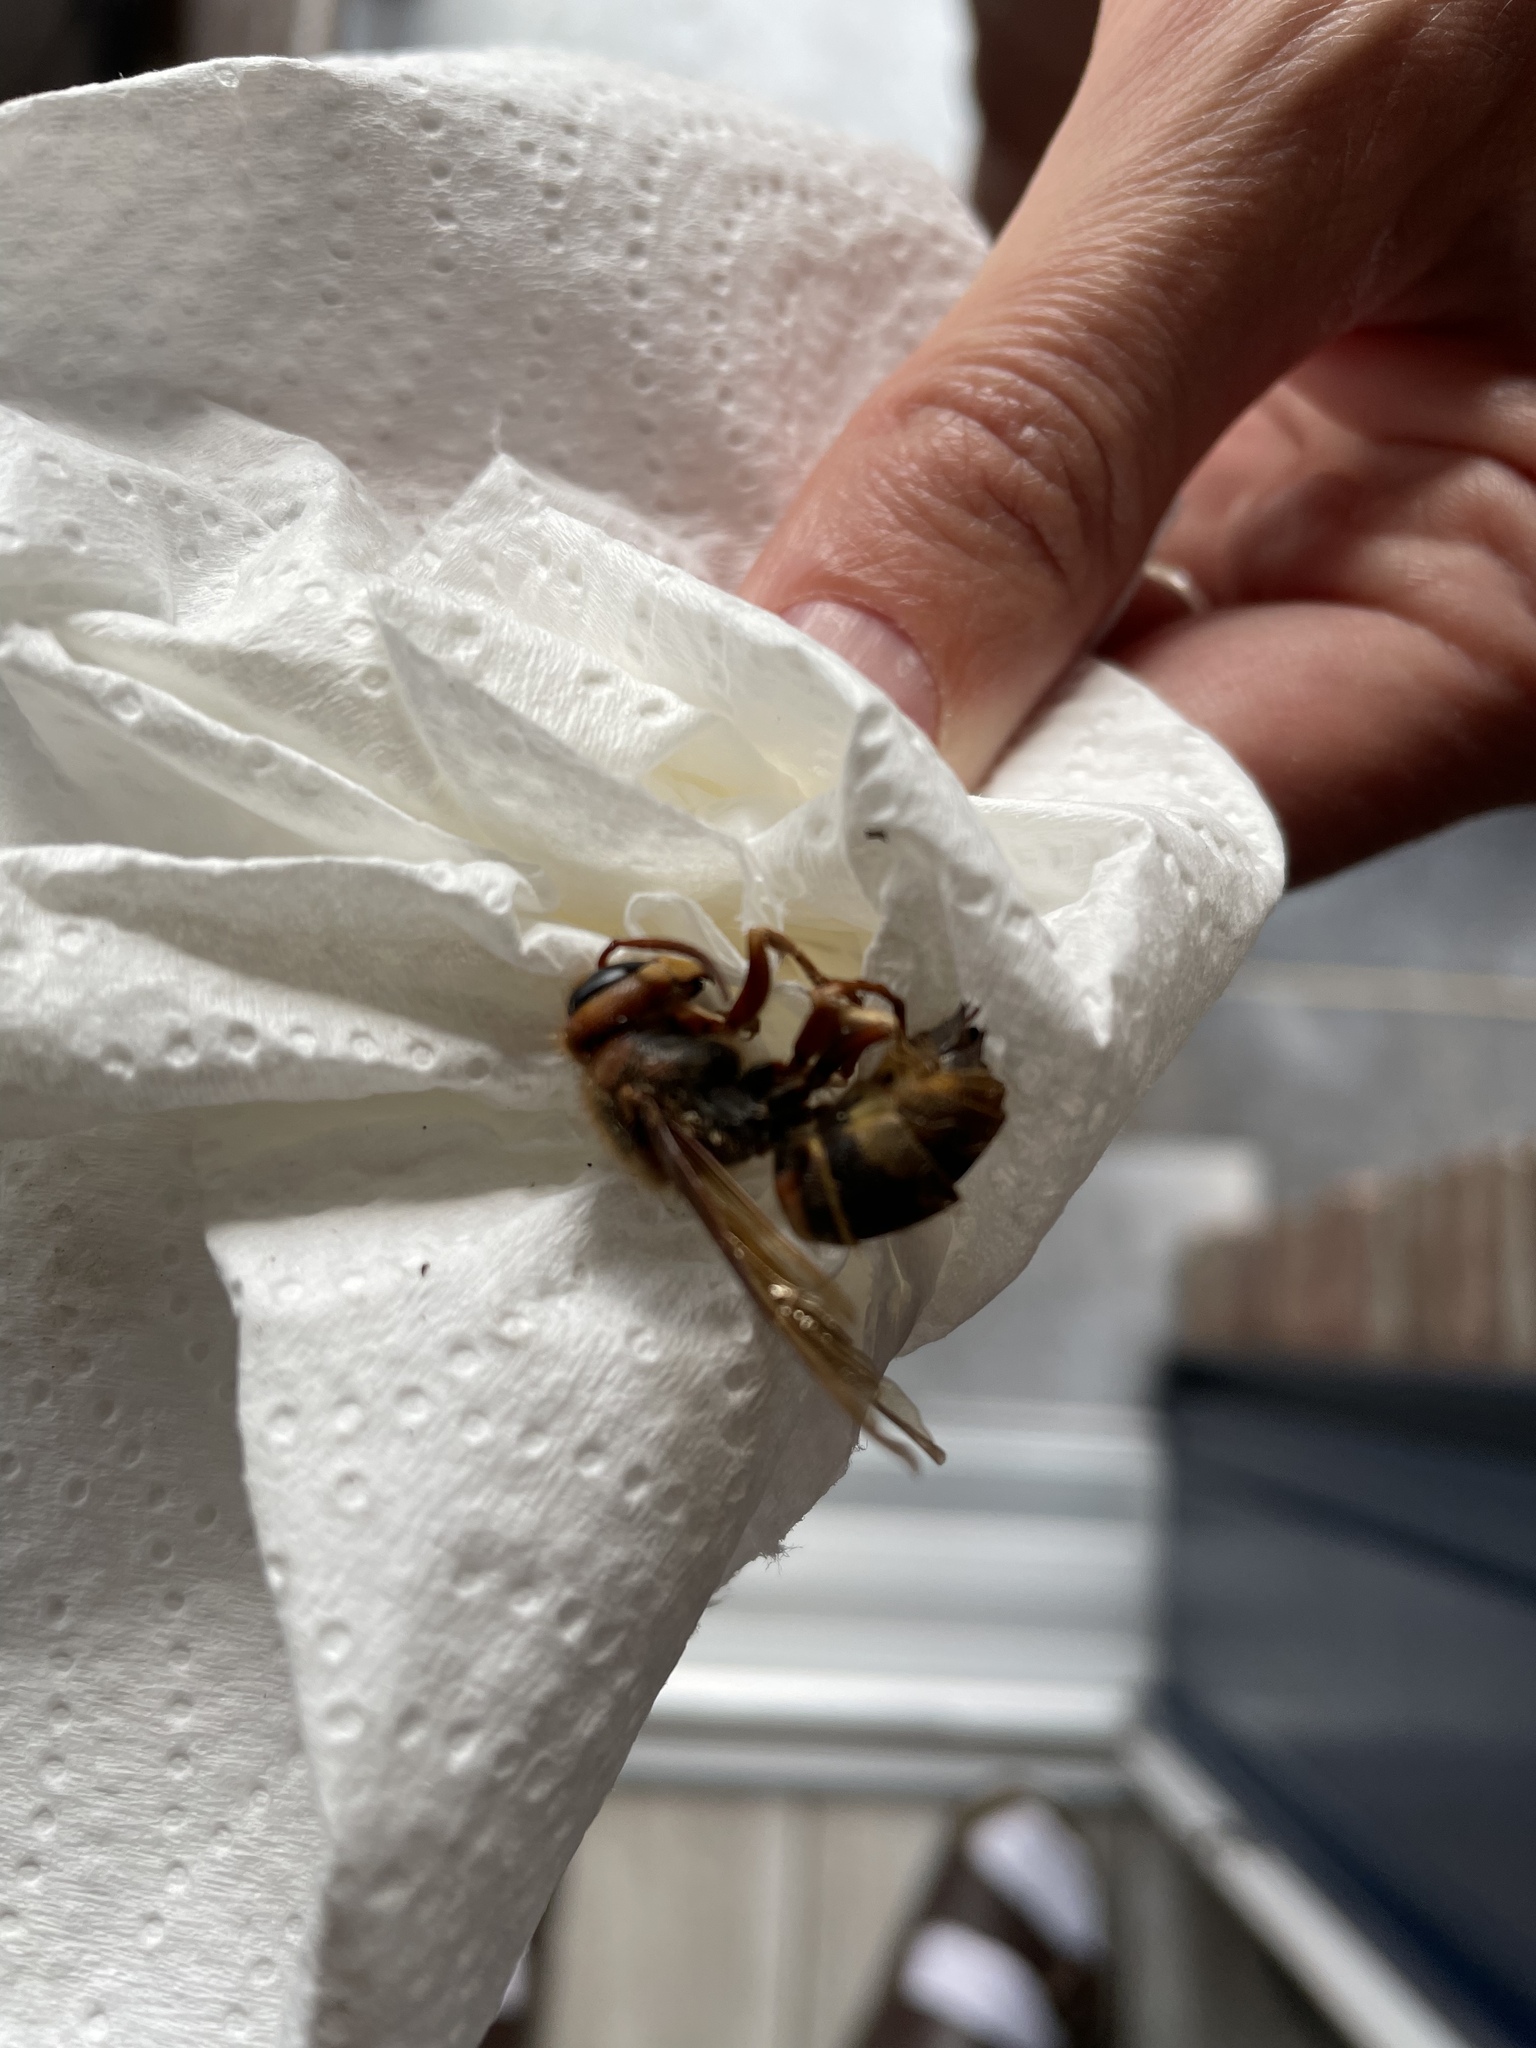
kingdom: Animalia
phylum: Arthropoda
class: Insecta
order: Hymenoptera
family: Vespidae
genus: Vespa
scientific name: Vespa crabro
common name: Hornet
